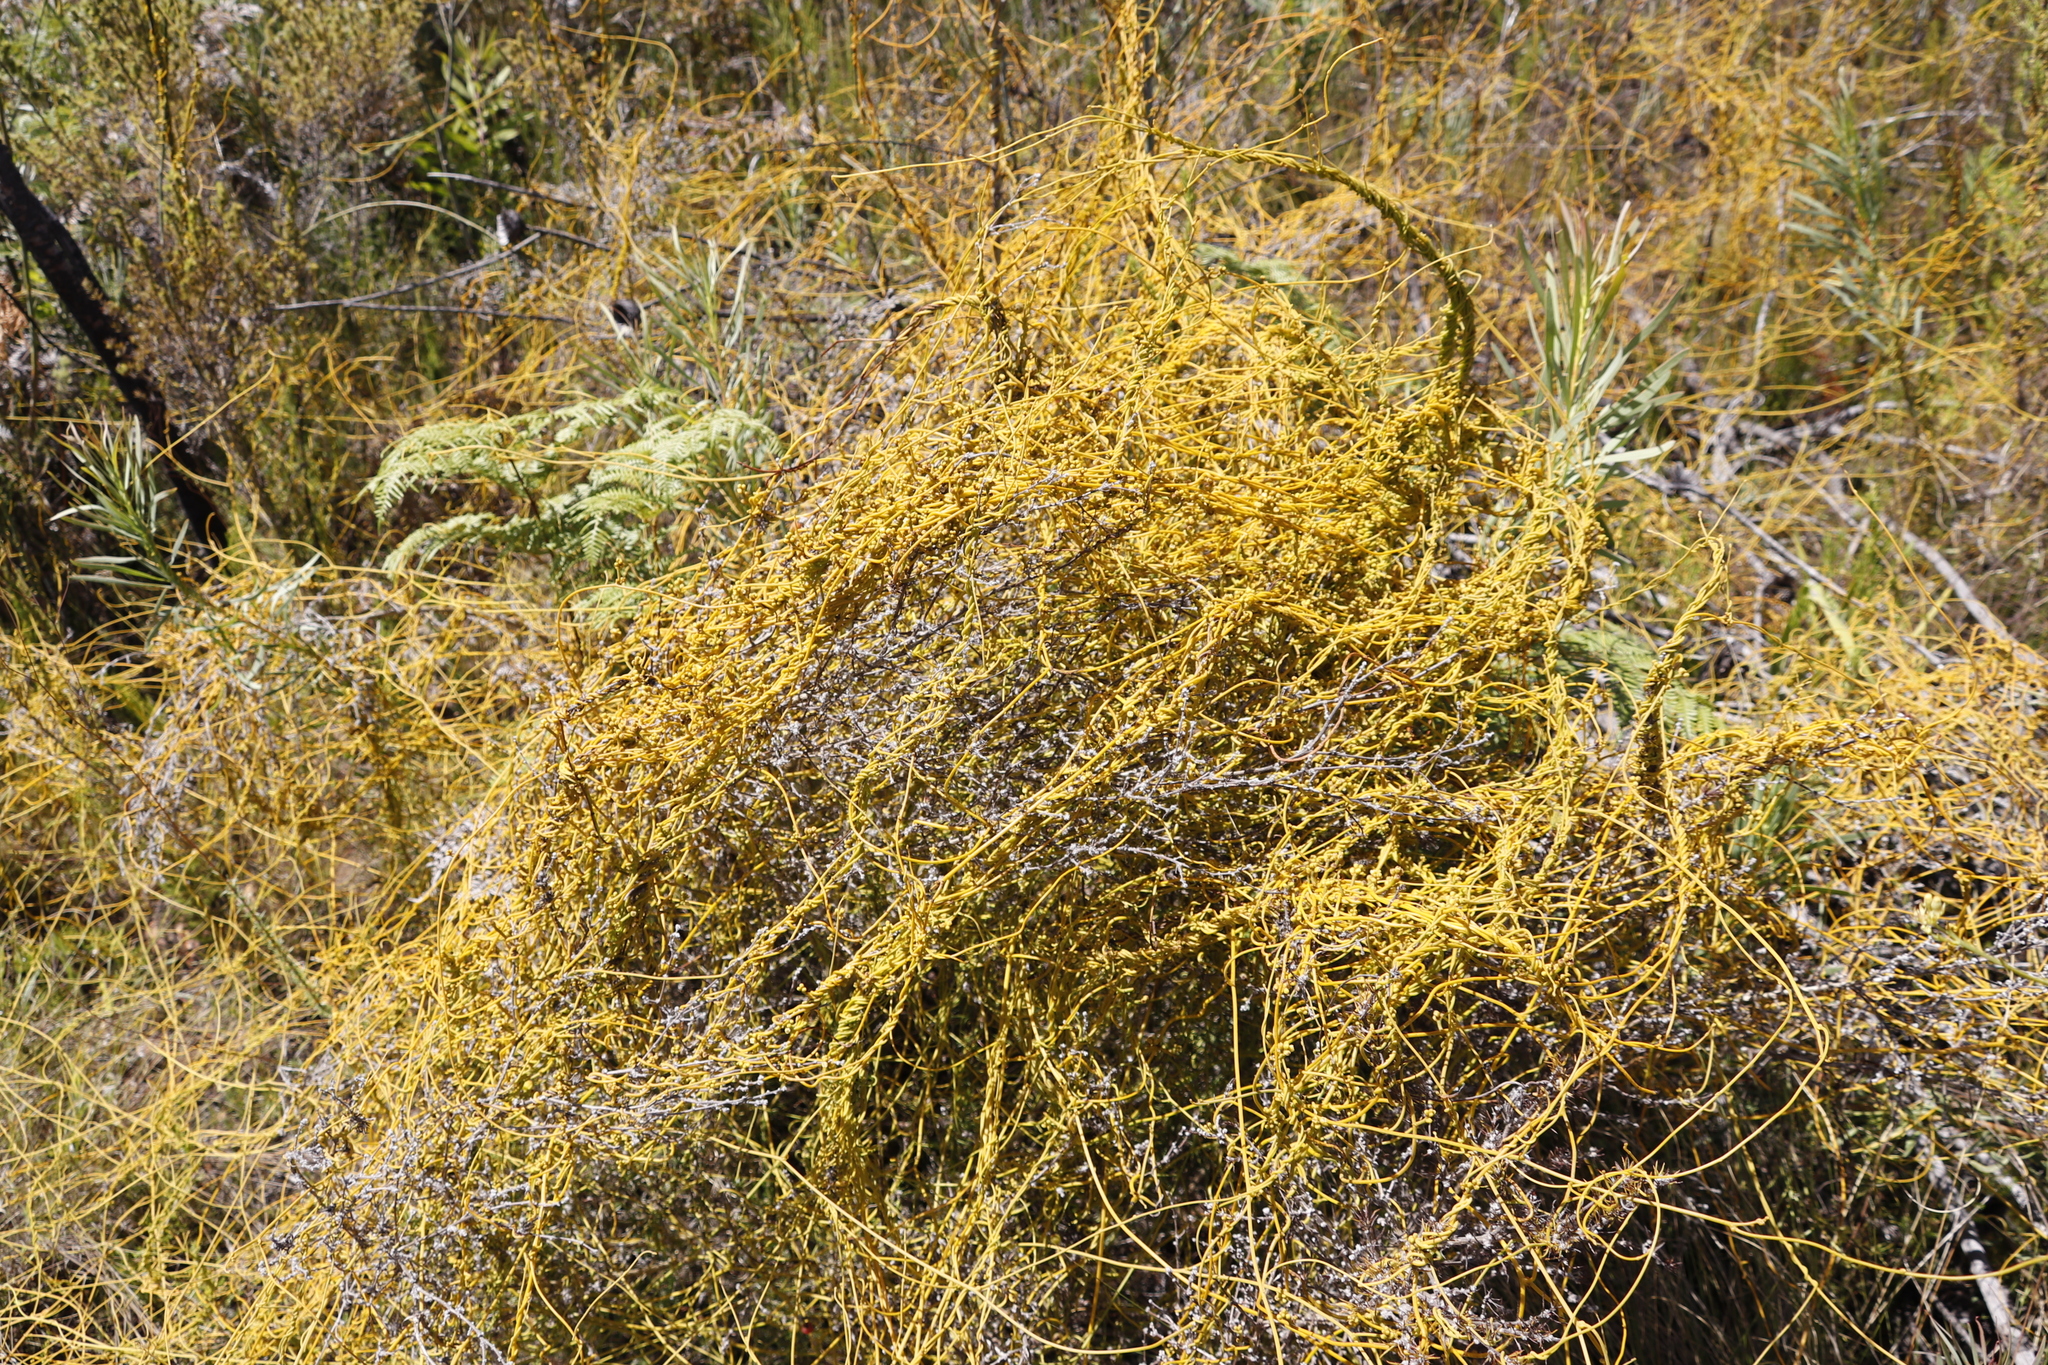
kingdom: Plantae
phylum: Tracheophyta
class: Magnoliopsida
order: Laurales
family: Lauraceae
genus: Cassytha
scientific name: Cassytha ciliolata
